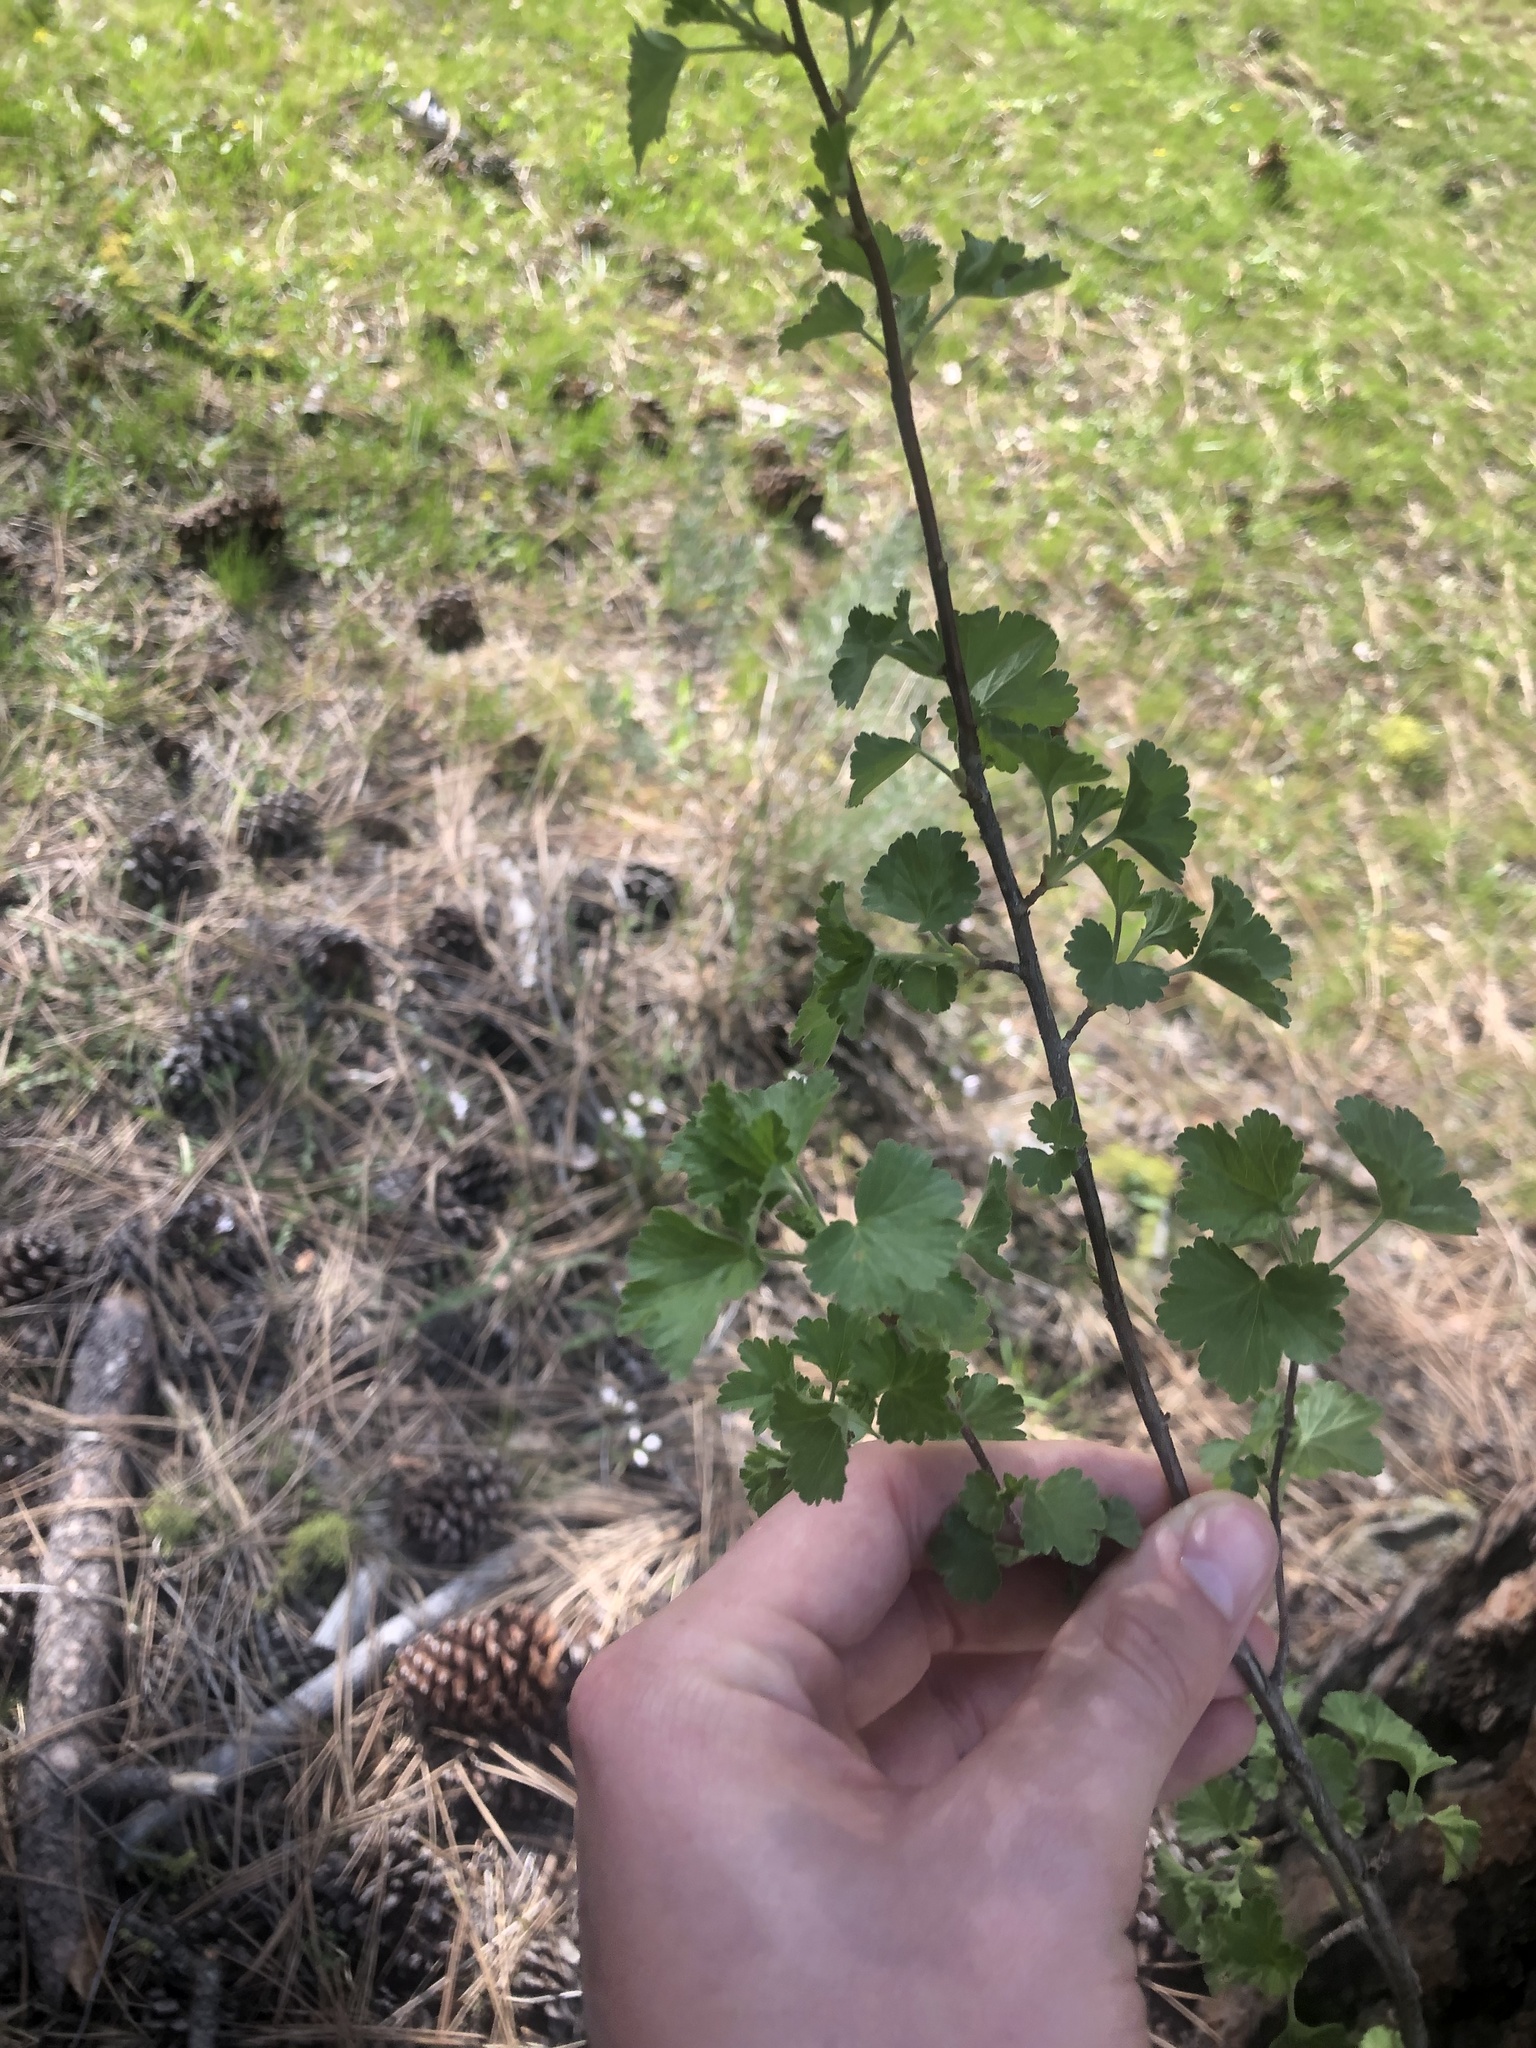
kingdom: Plantae
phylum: Tracheophyta
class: Magnoliopsida
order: Saxifragales
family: Grossulariaceae
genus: Ribes
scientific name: Ribes cereum
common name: Wax currant
